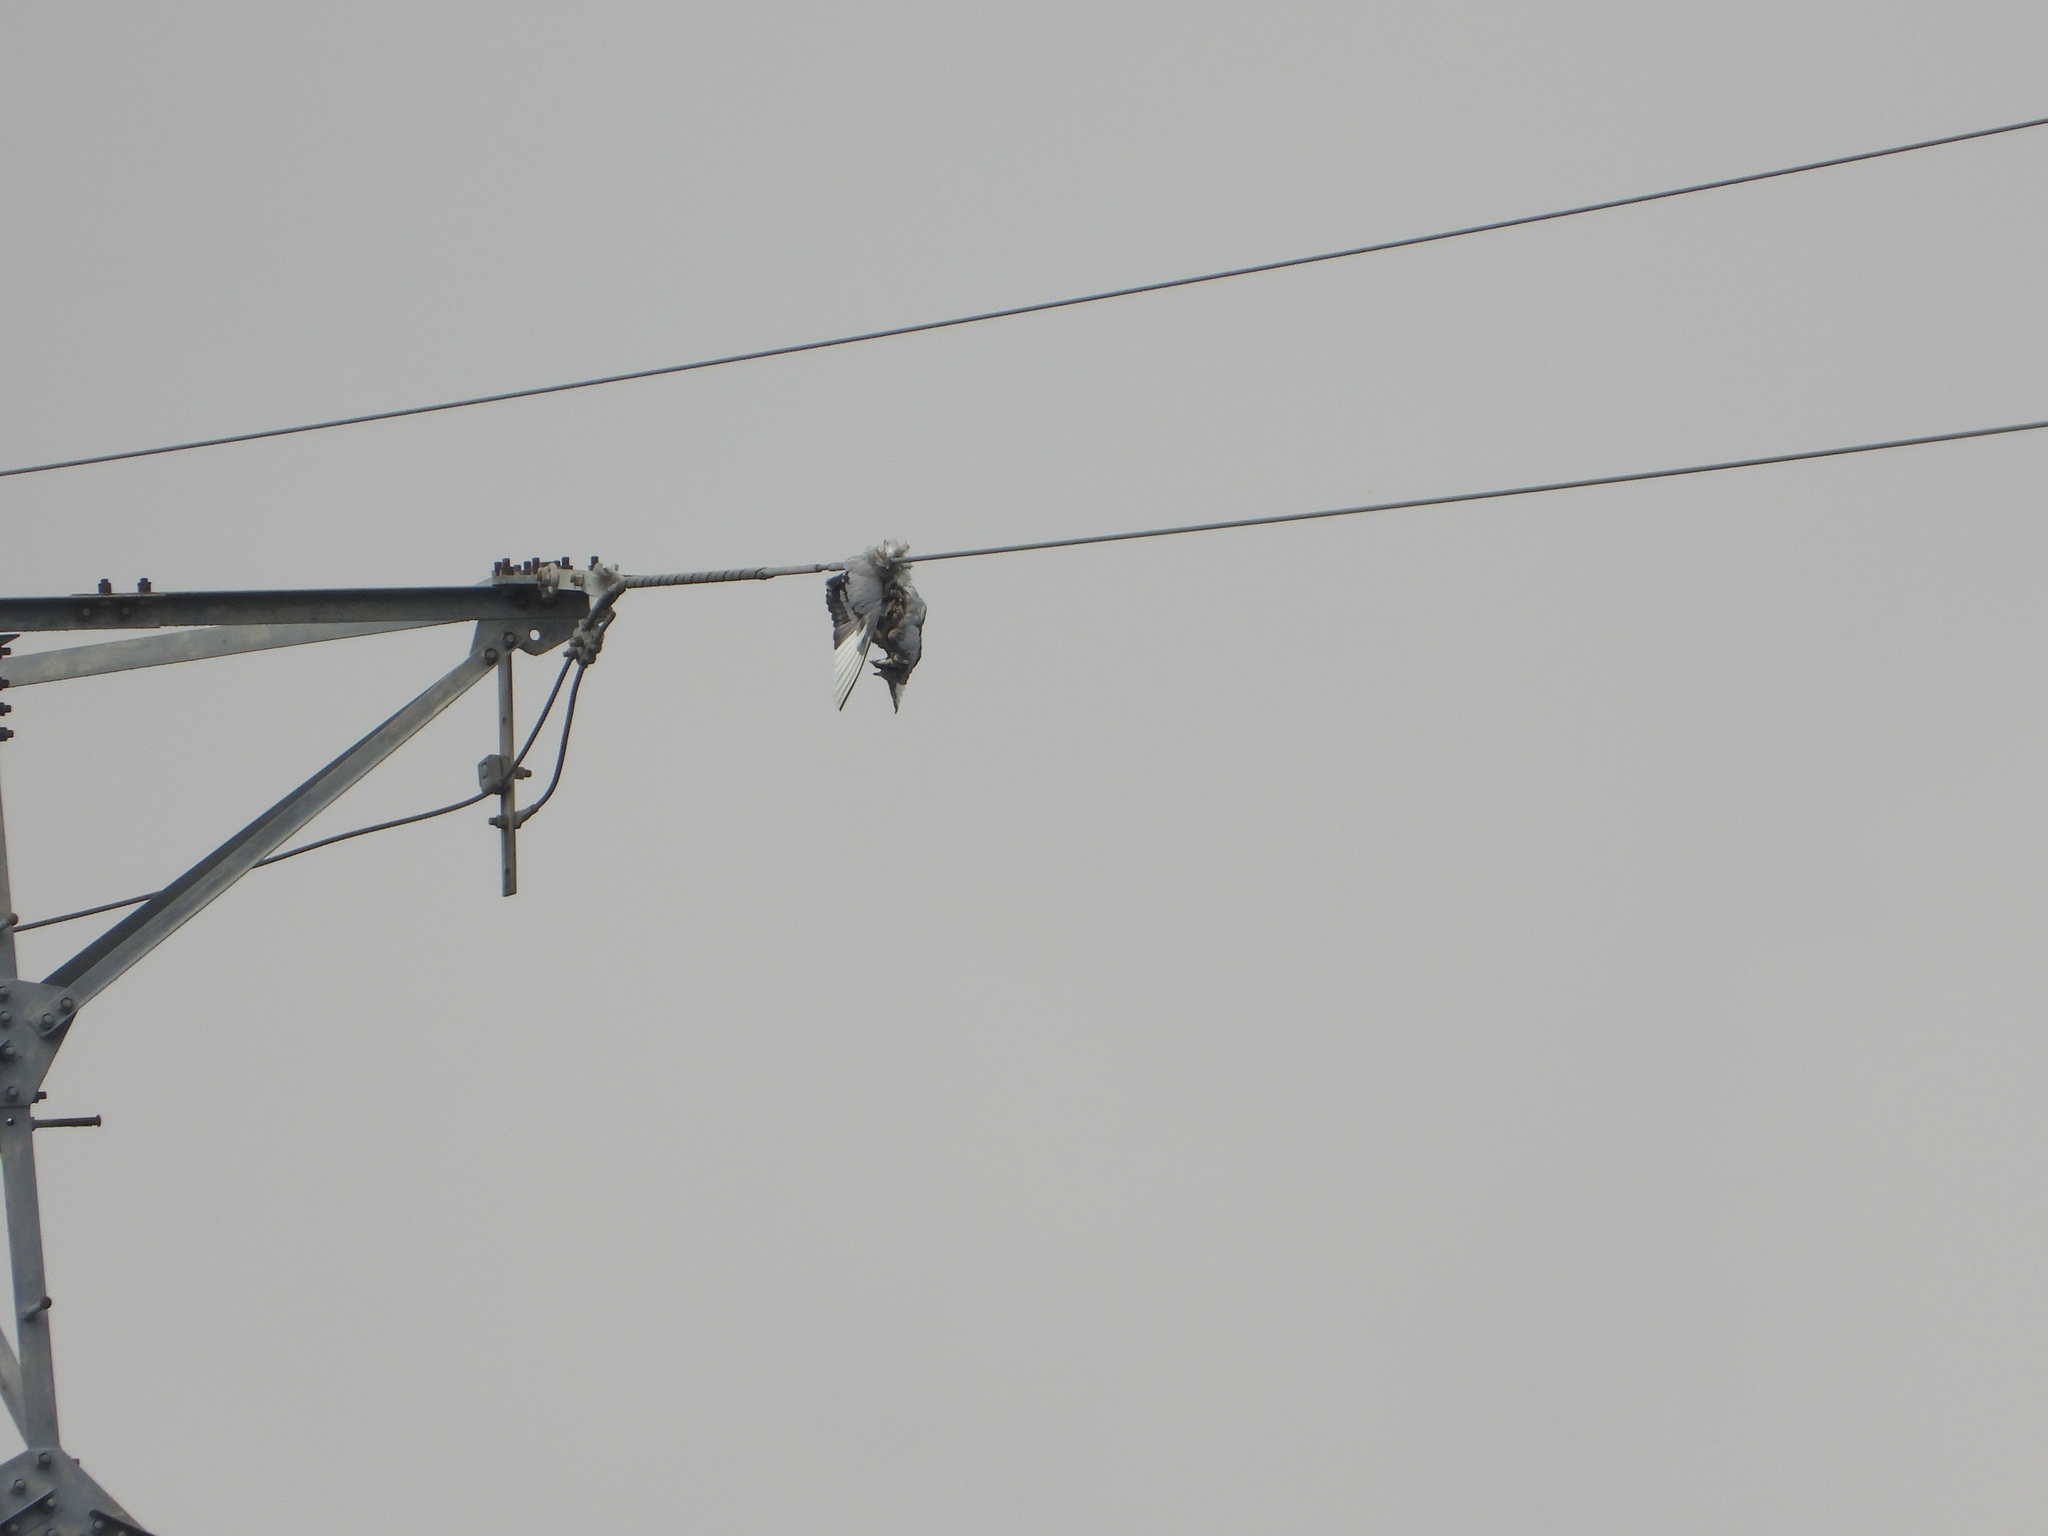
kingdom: Animalia
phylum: Chordata
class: Aves
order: Columbiformes
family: Columbidae
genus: Columba
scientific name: Columba livia
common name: Rock pigeon
